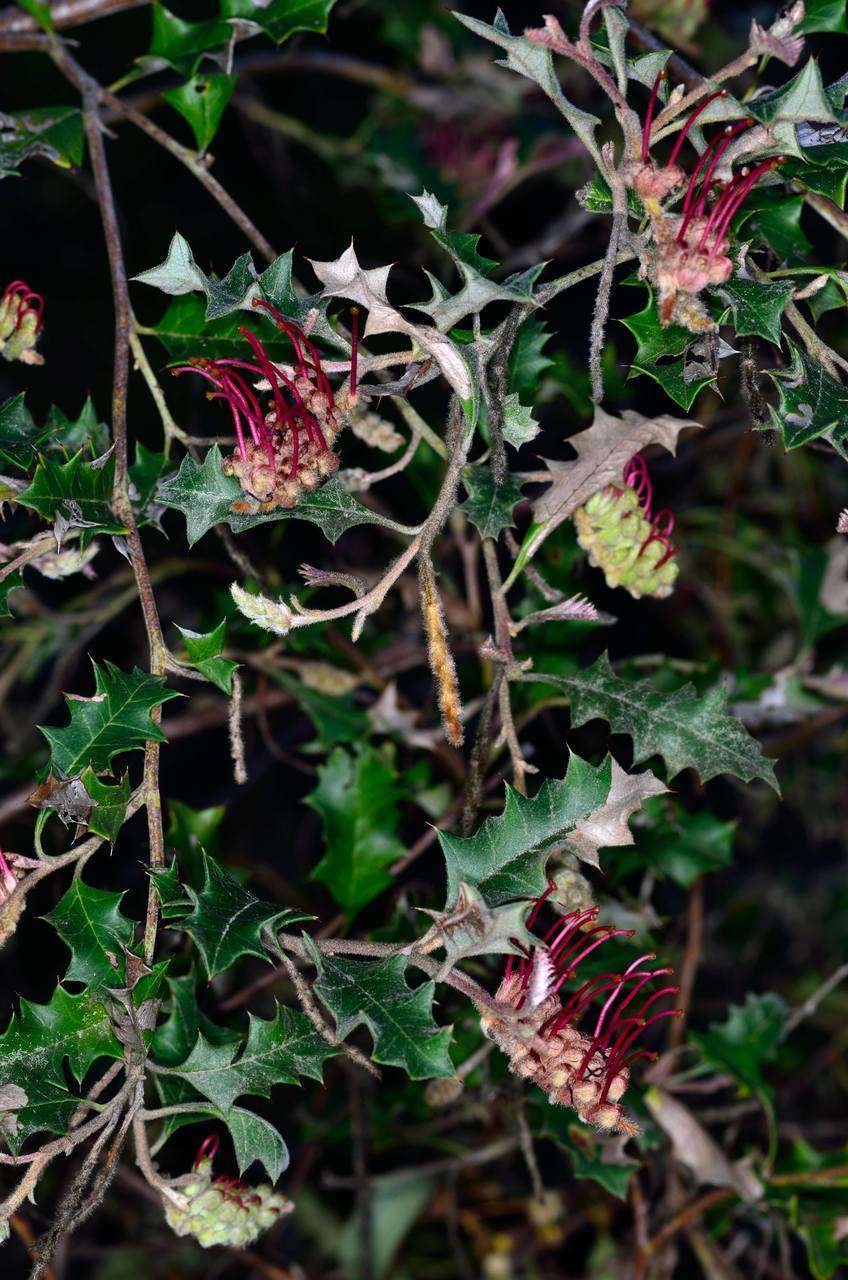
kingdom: Plantae
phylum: Tracheophyta
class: Magnoliopsida
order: Proteales
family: Proteaceae
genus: Grevillea
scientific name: Grevillea aquifolium
